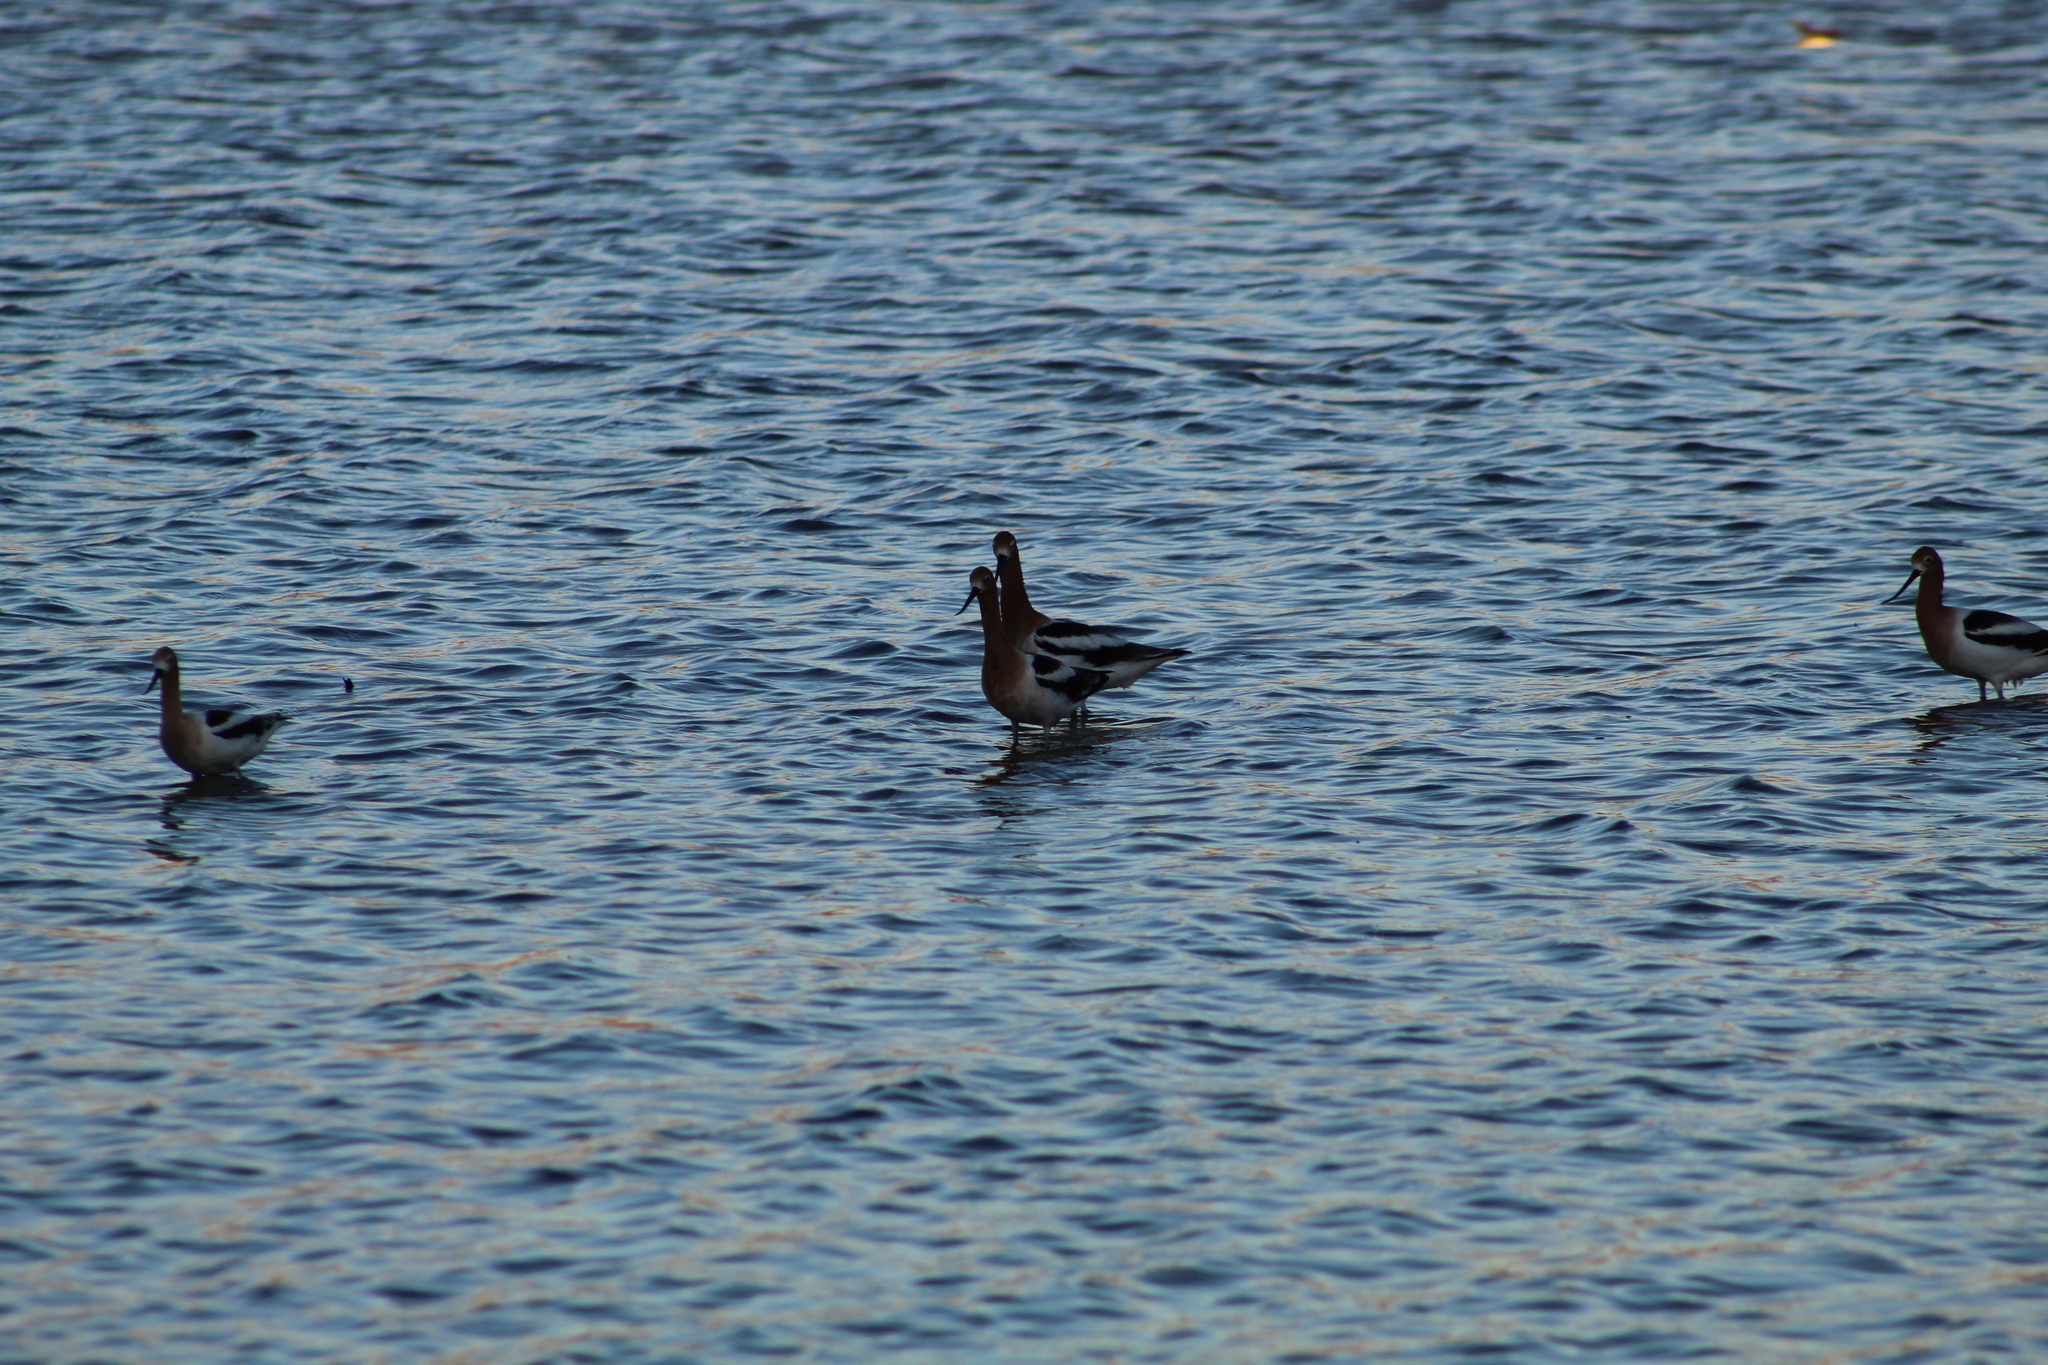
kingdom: Animalia
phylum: Chordata
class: Aves
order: Charadriiformes
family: Recurvirostridae
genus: Recurvirostra
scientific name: Recurvirostra americana
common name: American avocet
